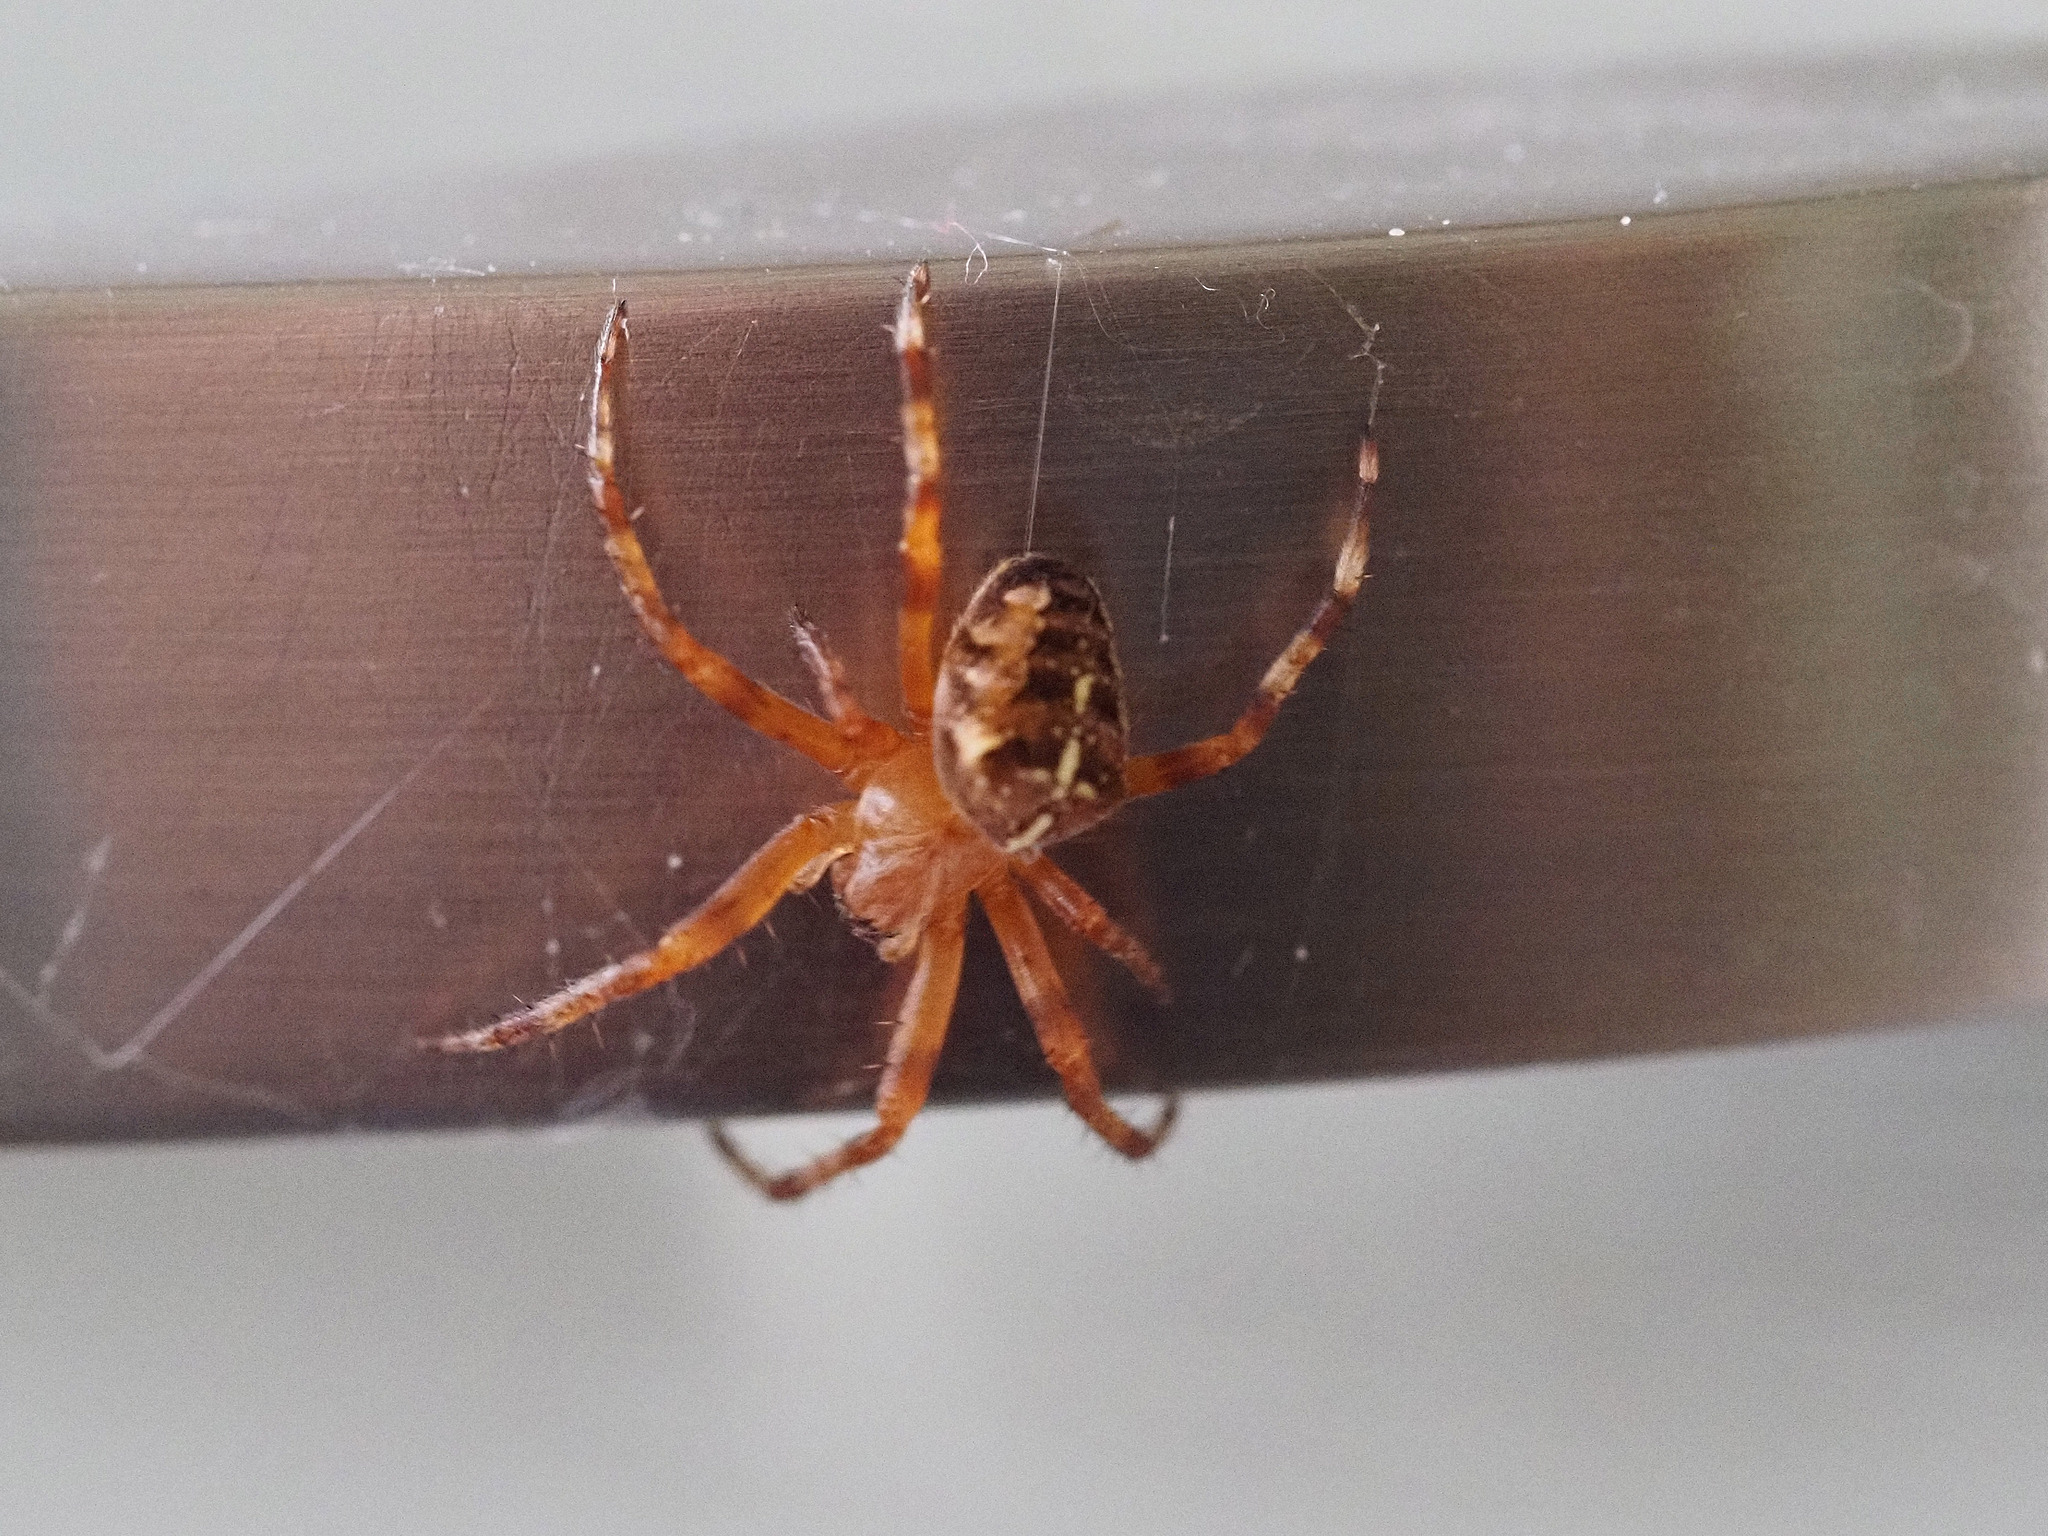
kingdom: Animalia
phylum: Arthropoda
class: Arachnida
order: Araneae
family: Araneidae
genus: Araneus
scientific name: Araneus diadematus
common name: Cross orbweaver
